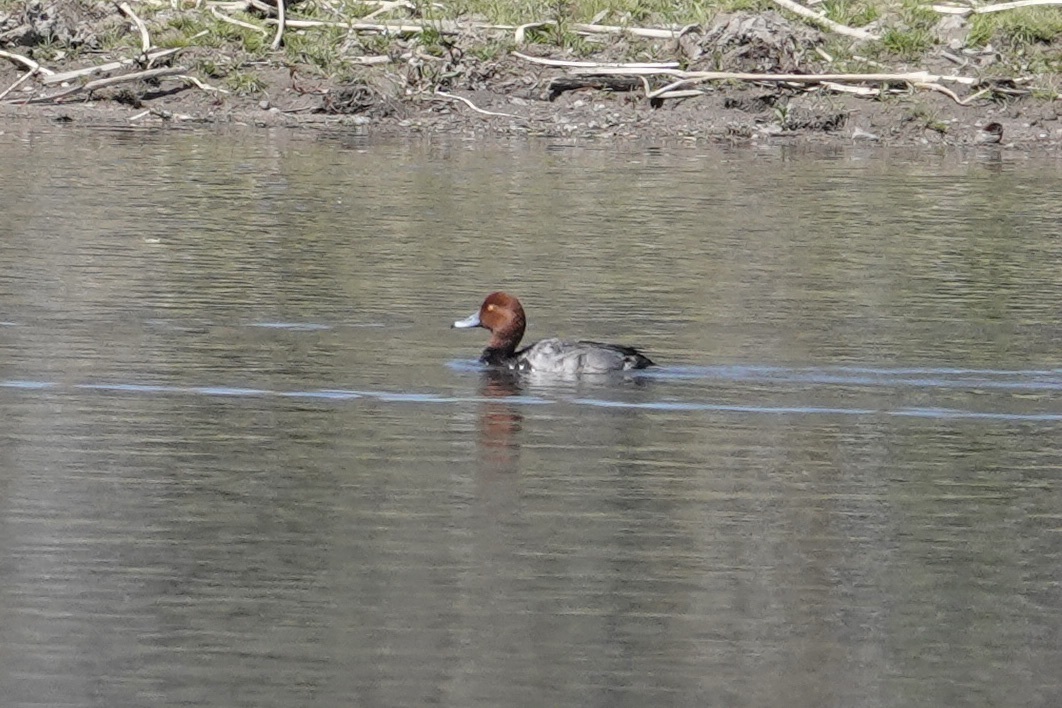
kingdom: Animalia
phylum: Chordata
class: Aves
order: Anseriformes
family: Anatidae
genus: Aythya
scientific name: Aythya americana
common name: Redhead
